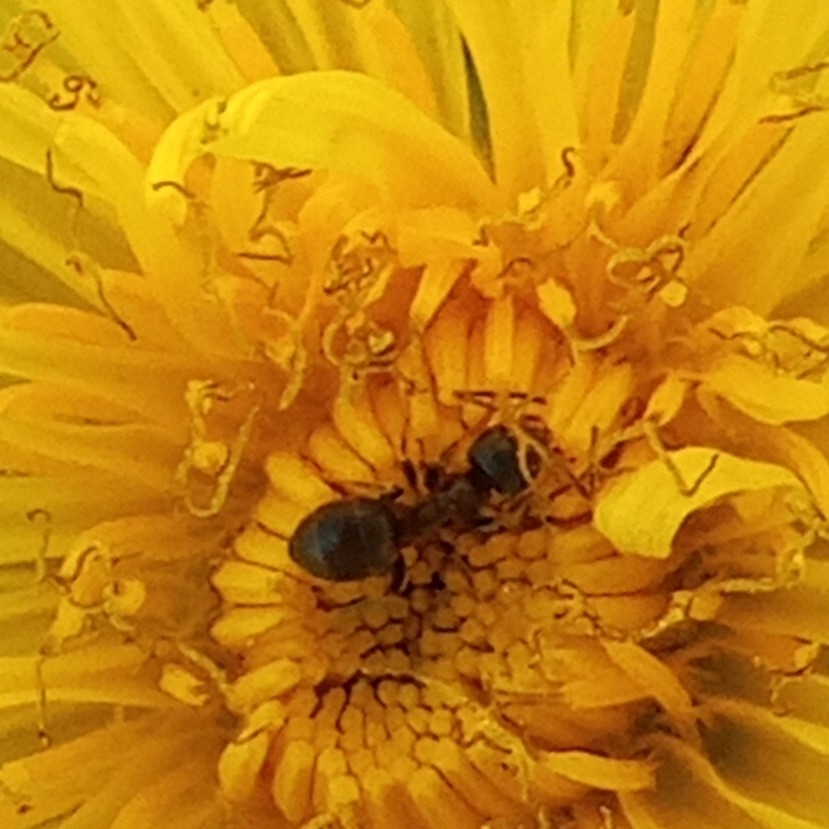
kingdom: Animalia
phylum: Arthropoda
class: Insecta
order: Hymenoptera
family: Formicidae
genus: Lasius
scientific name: Lasius niger
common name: Small black ant
